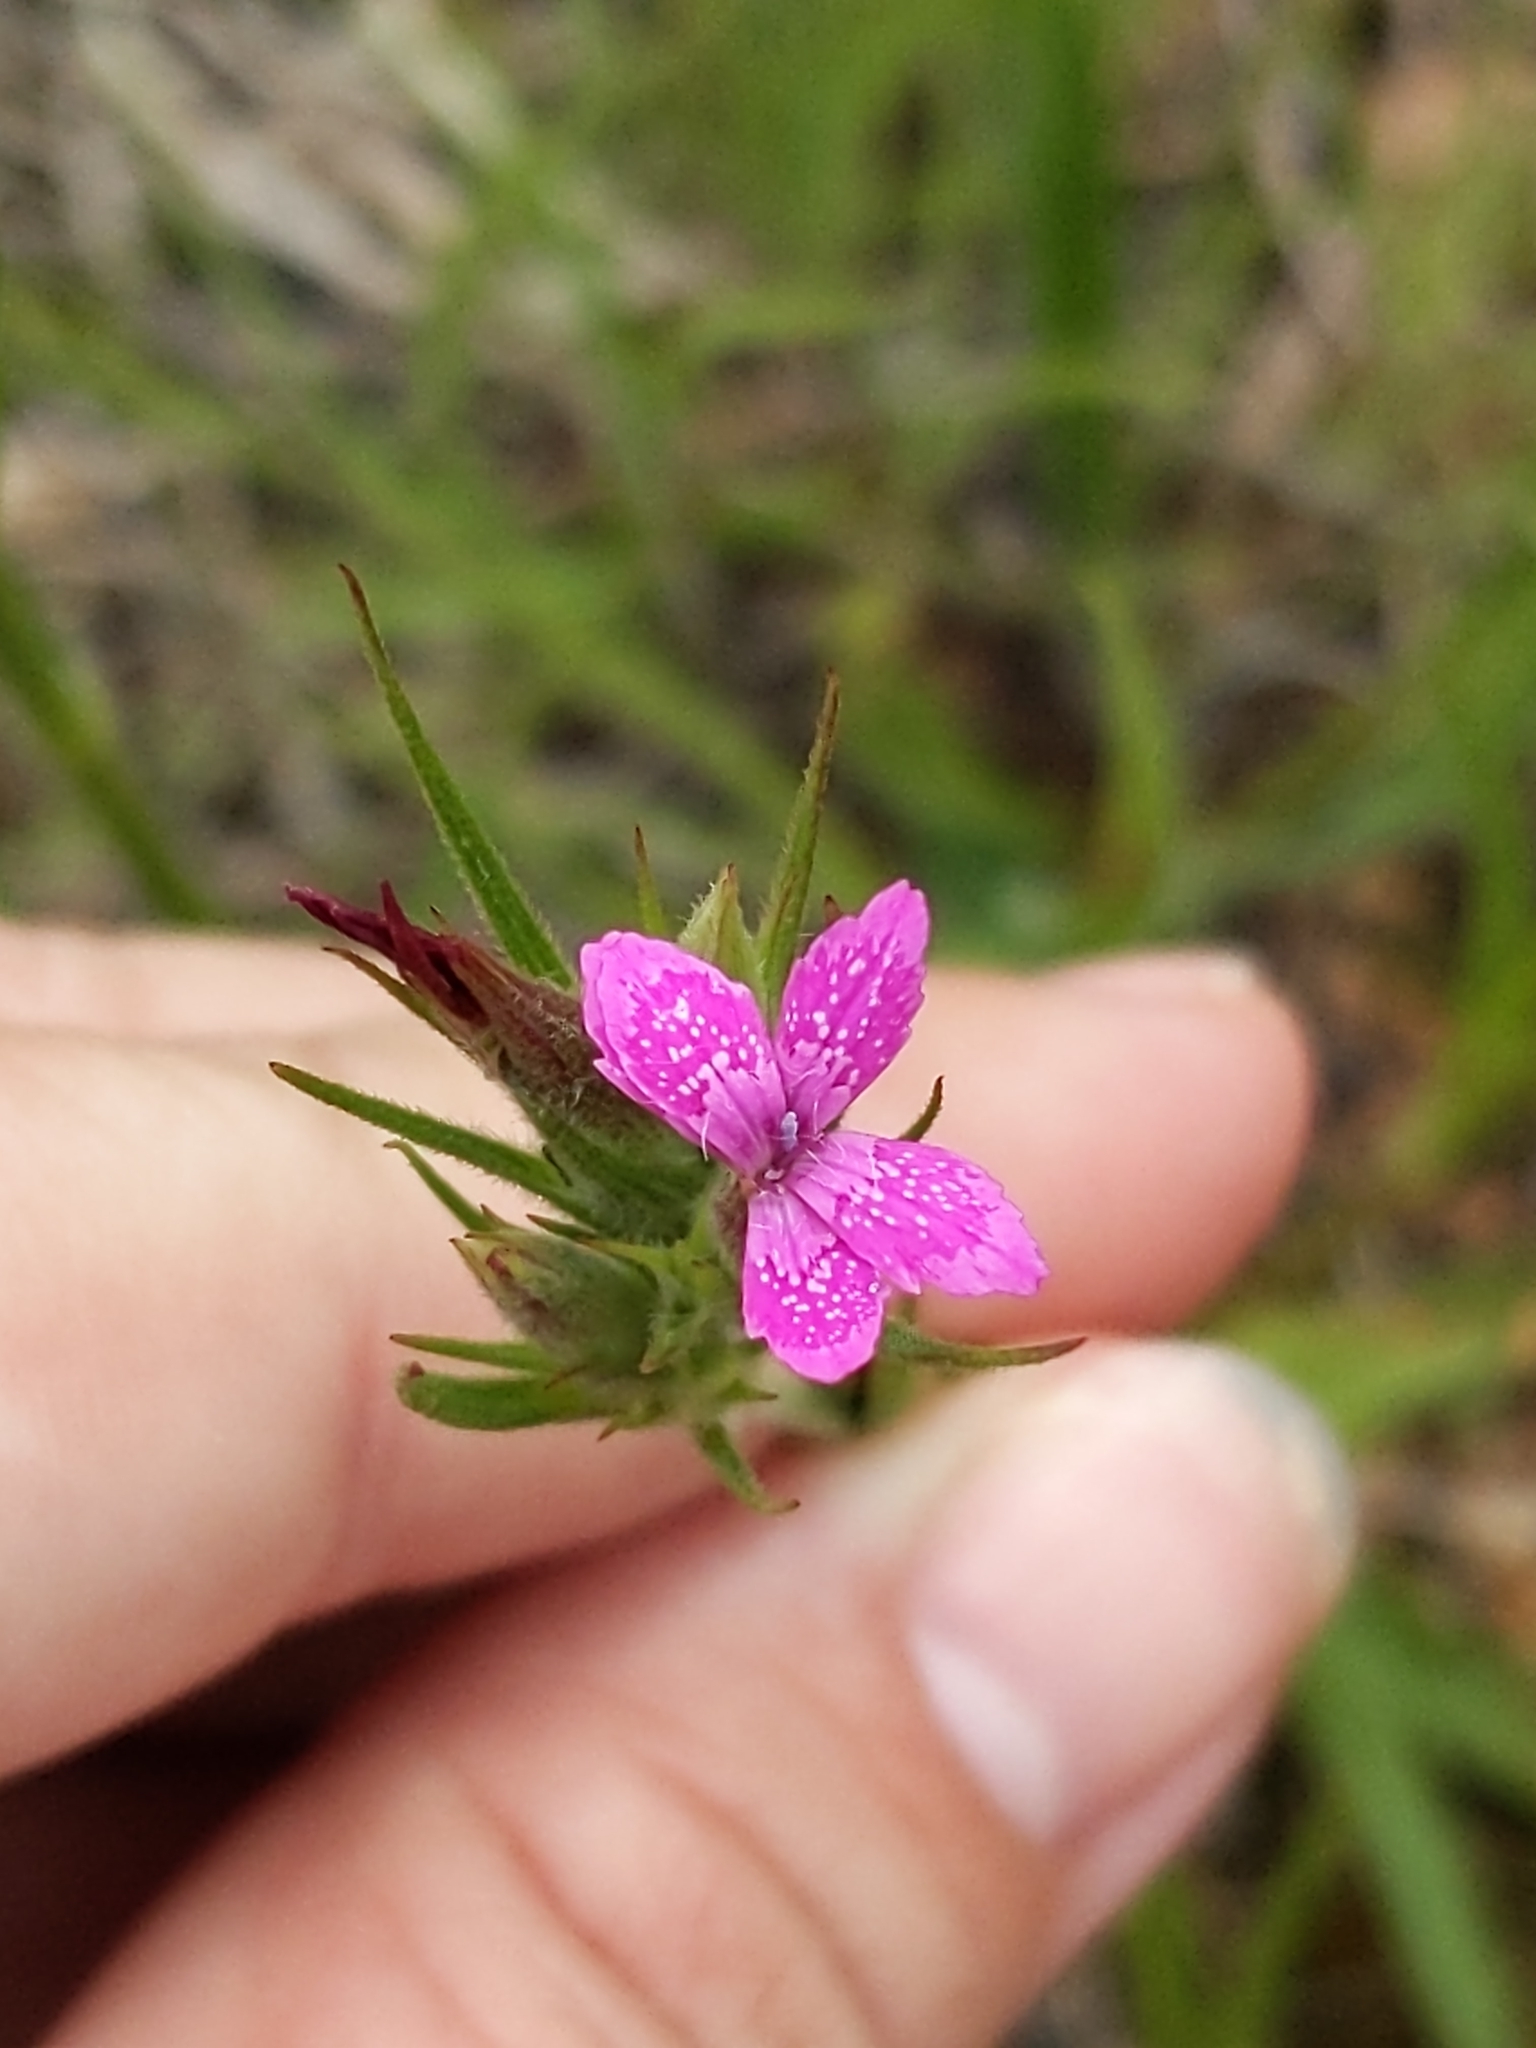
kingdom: Plantae
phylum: Tracheophyta
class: Magnoliopsida
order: Caryophyllales
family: Caryophyllaceae
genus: Dianthus
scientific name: Dianthus armeria
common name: Deptford pink
